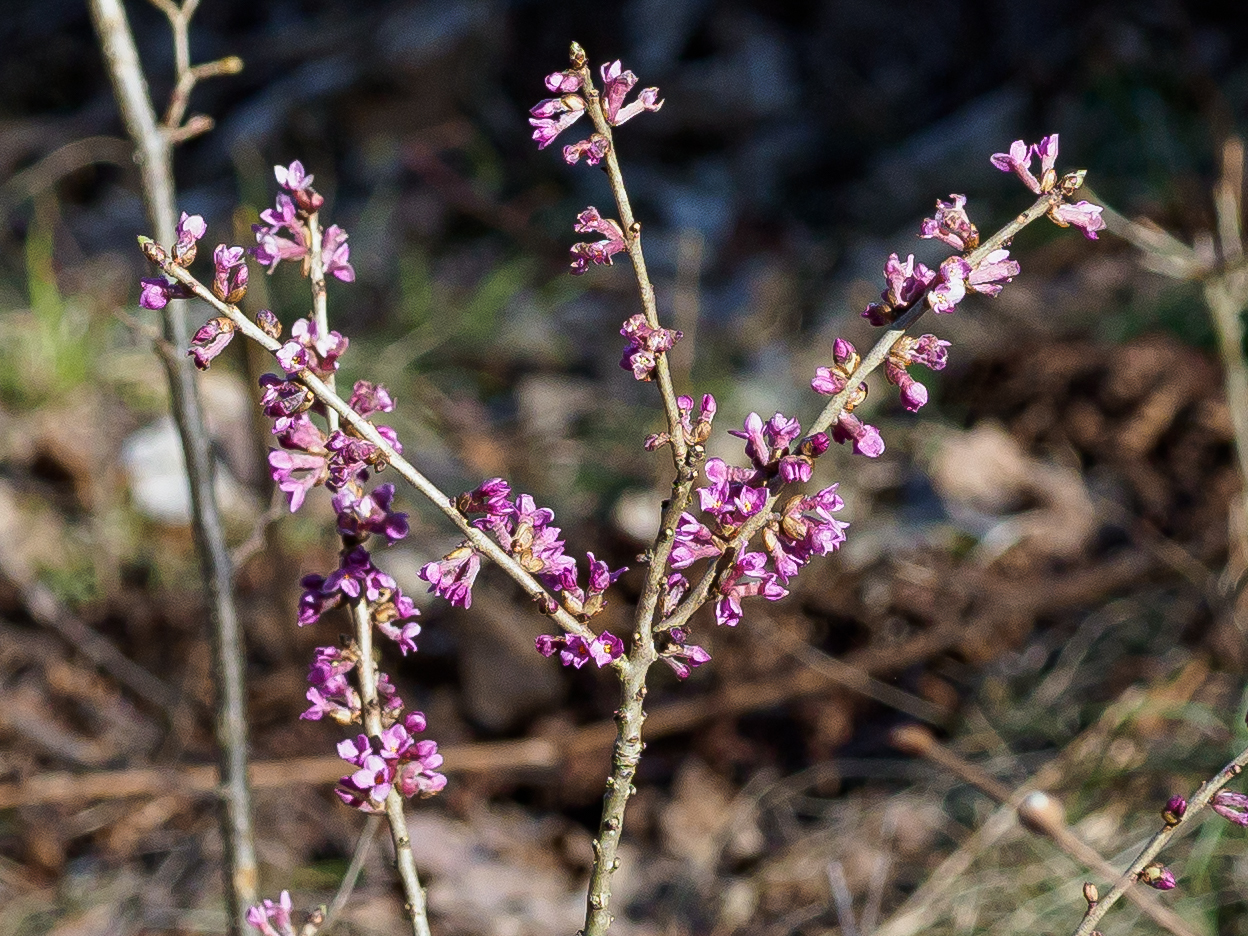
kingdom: Plantae
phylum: Tracheophyta
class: Magnoliopsida
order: Malvales
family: Thymelaeaceae
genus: Daphne
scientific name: Daphne mezereum
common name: Mezereon
